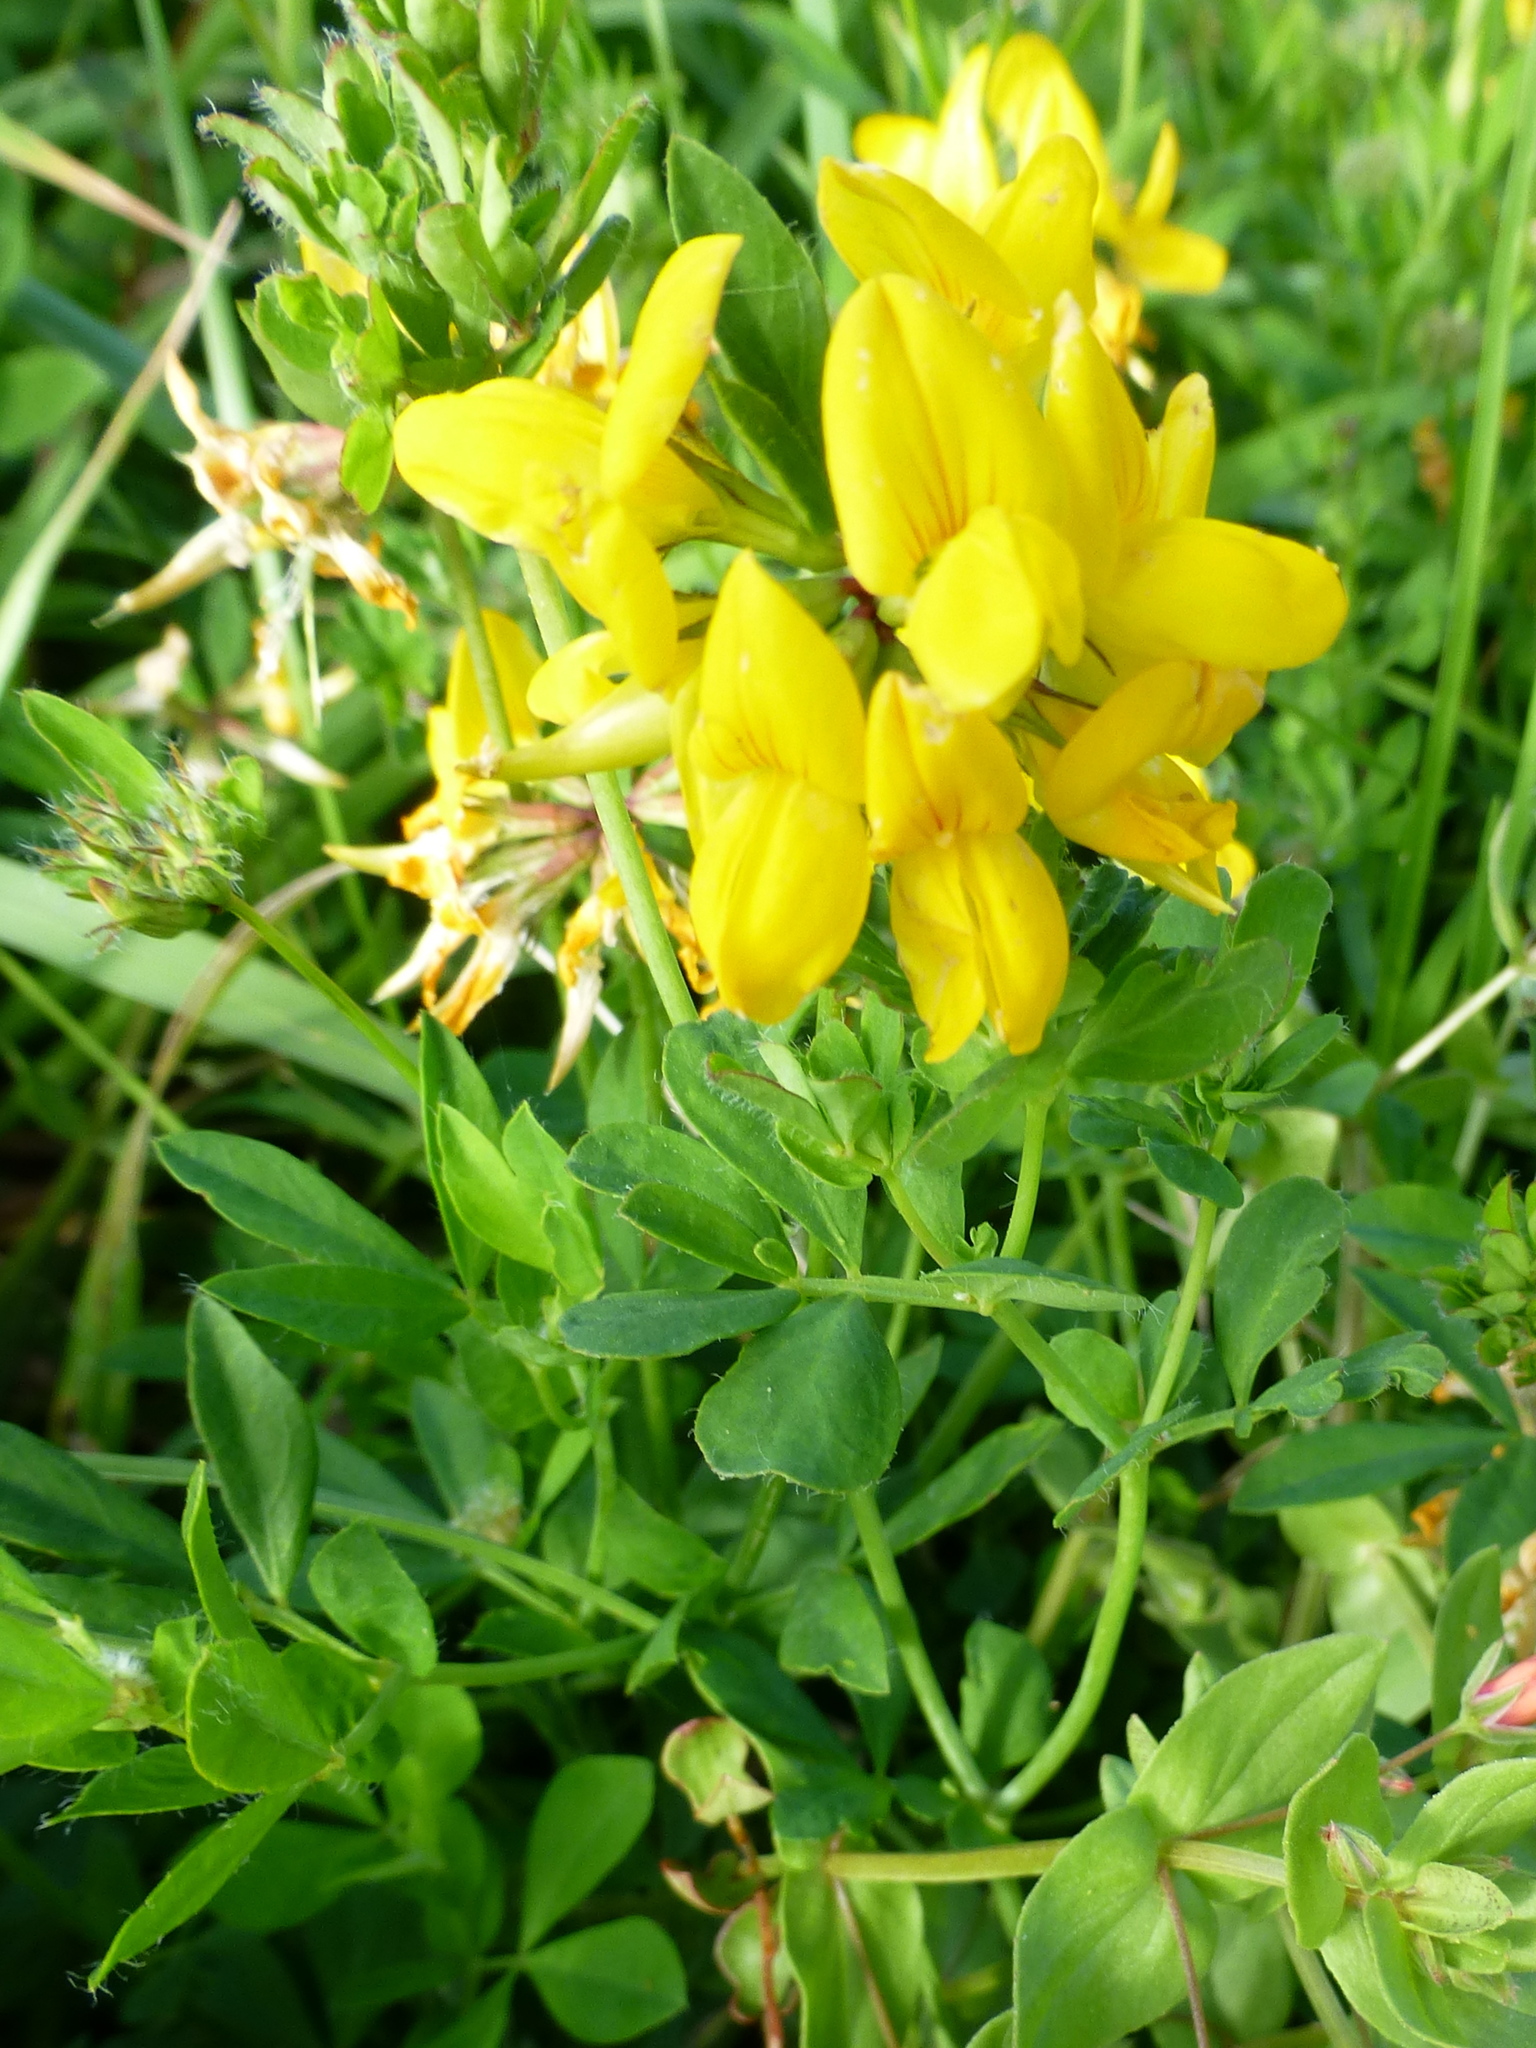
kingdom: Plantae
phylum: Tracheophyta
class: Magnoliopsida
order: Fabales
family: Fabaceae
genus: Lotus
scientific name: Lotus pedunculatus
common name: Greater birdsfoot-trefoil
